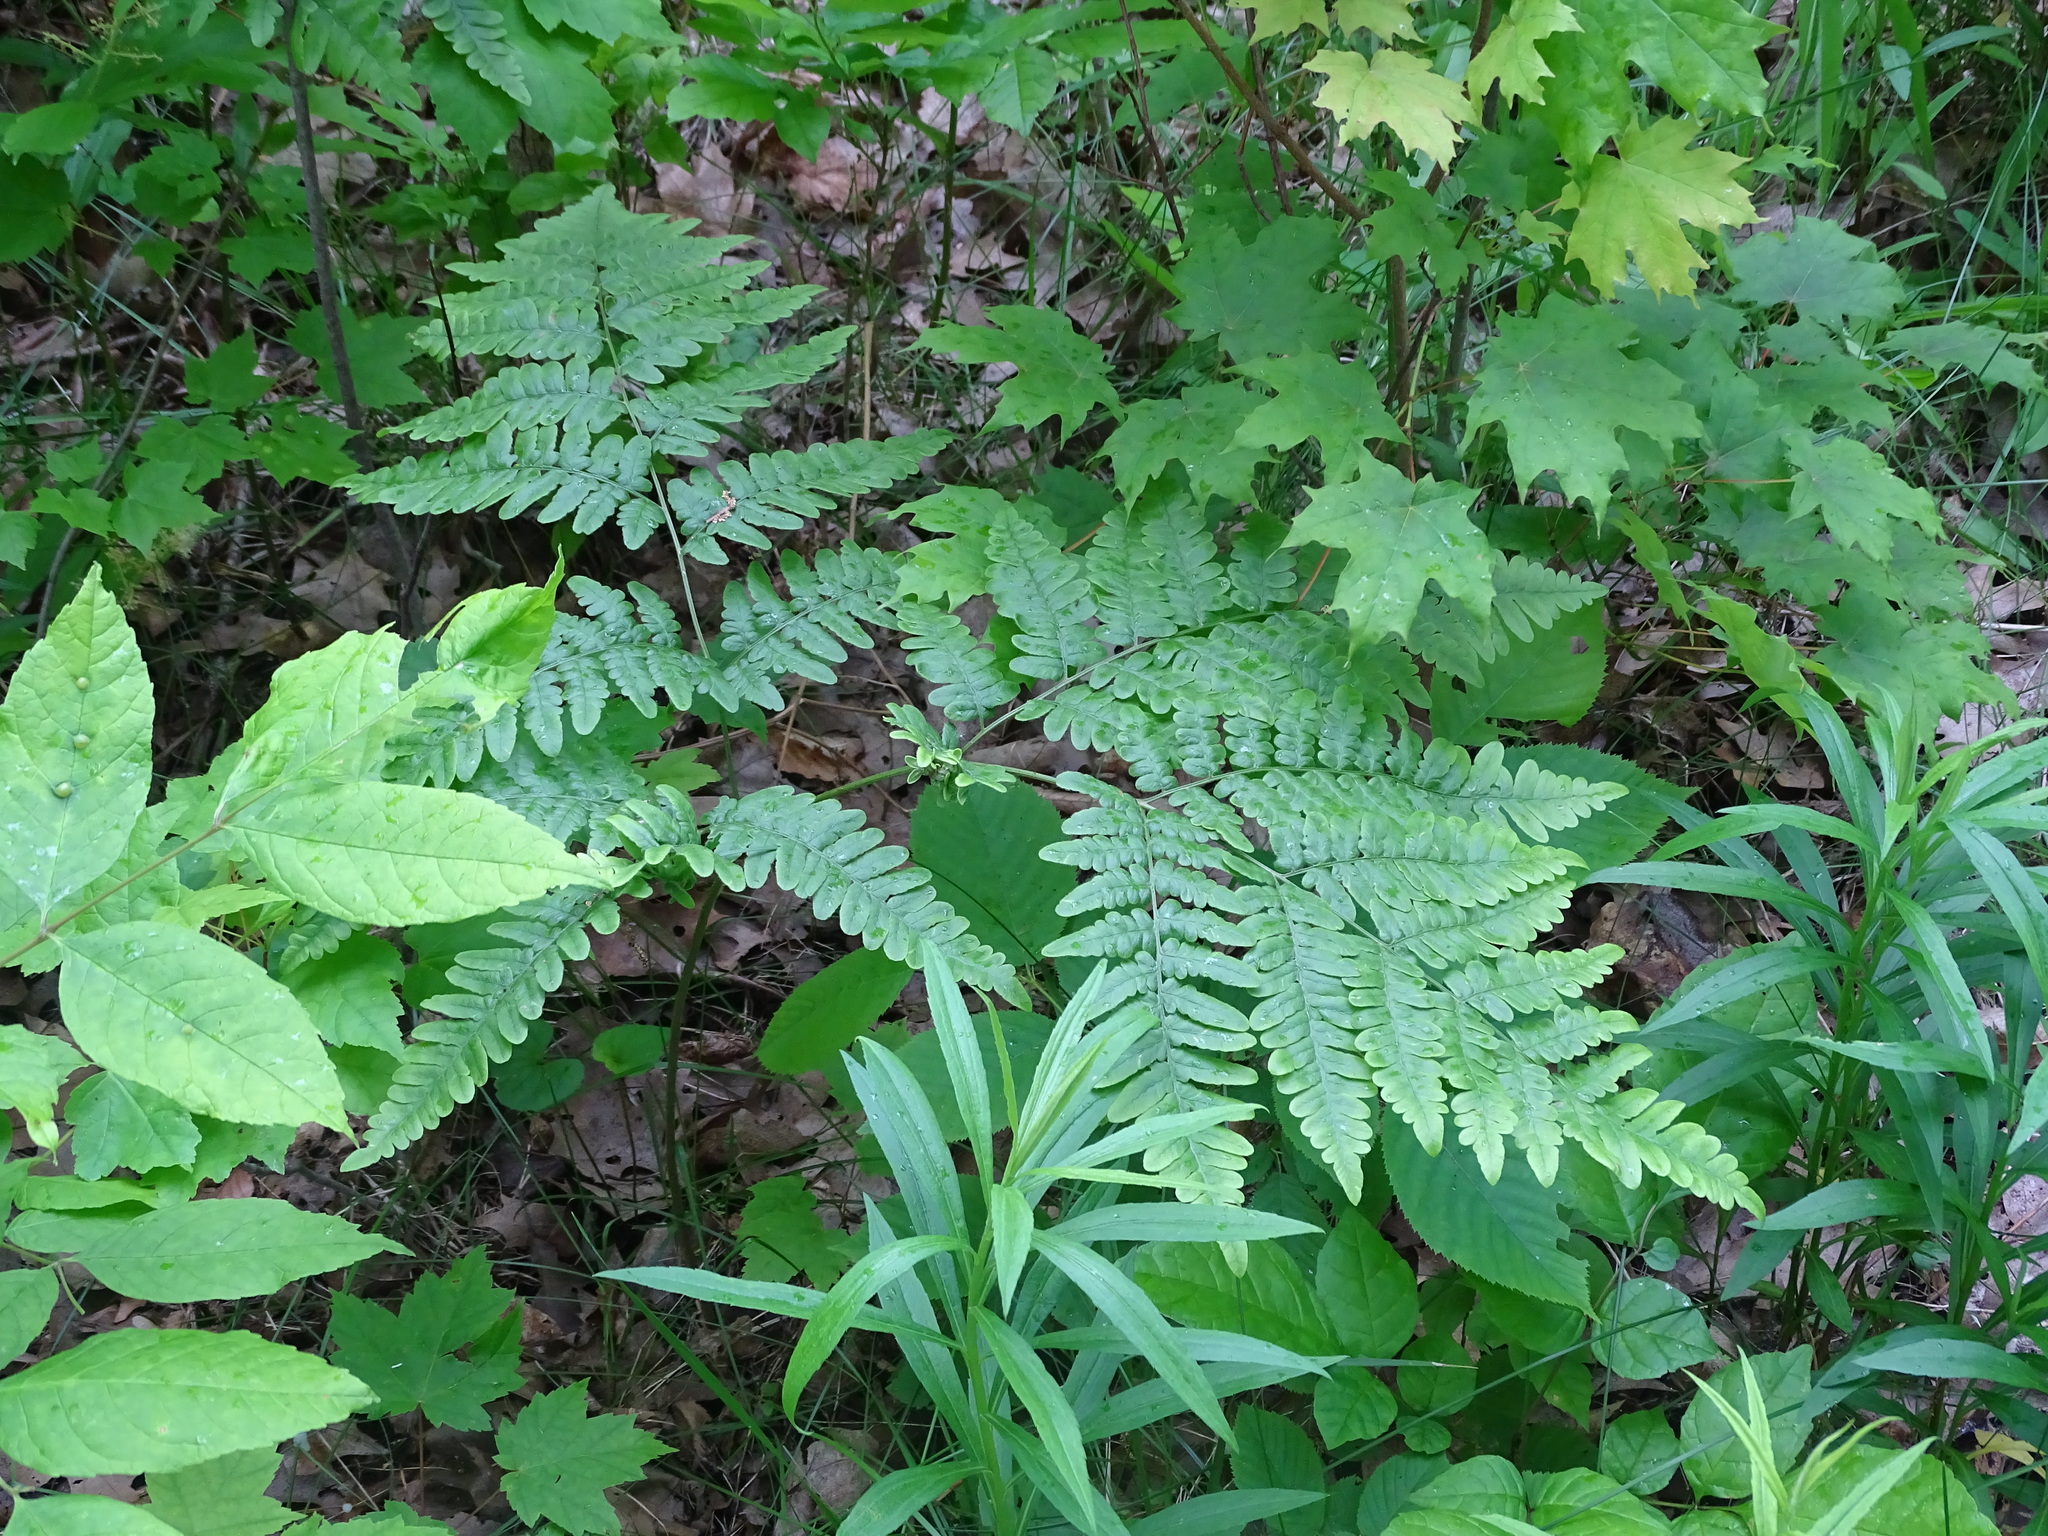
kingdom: Plantae
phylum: Tracheophyta
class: Polypodiopsida
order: Polypodiales
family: Dennstaedtiaceae
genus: Pteridium
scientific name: Pteridium aquilinum
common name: Bracken
